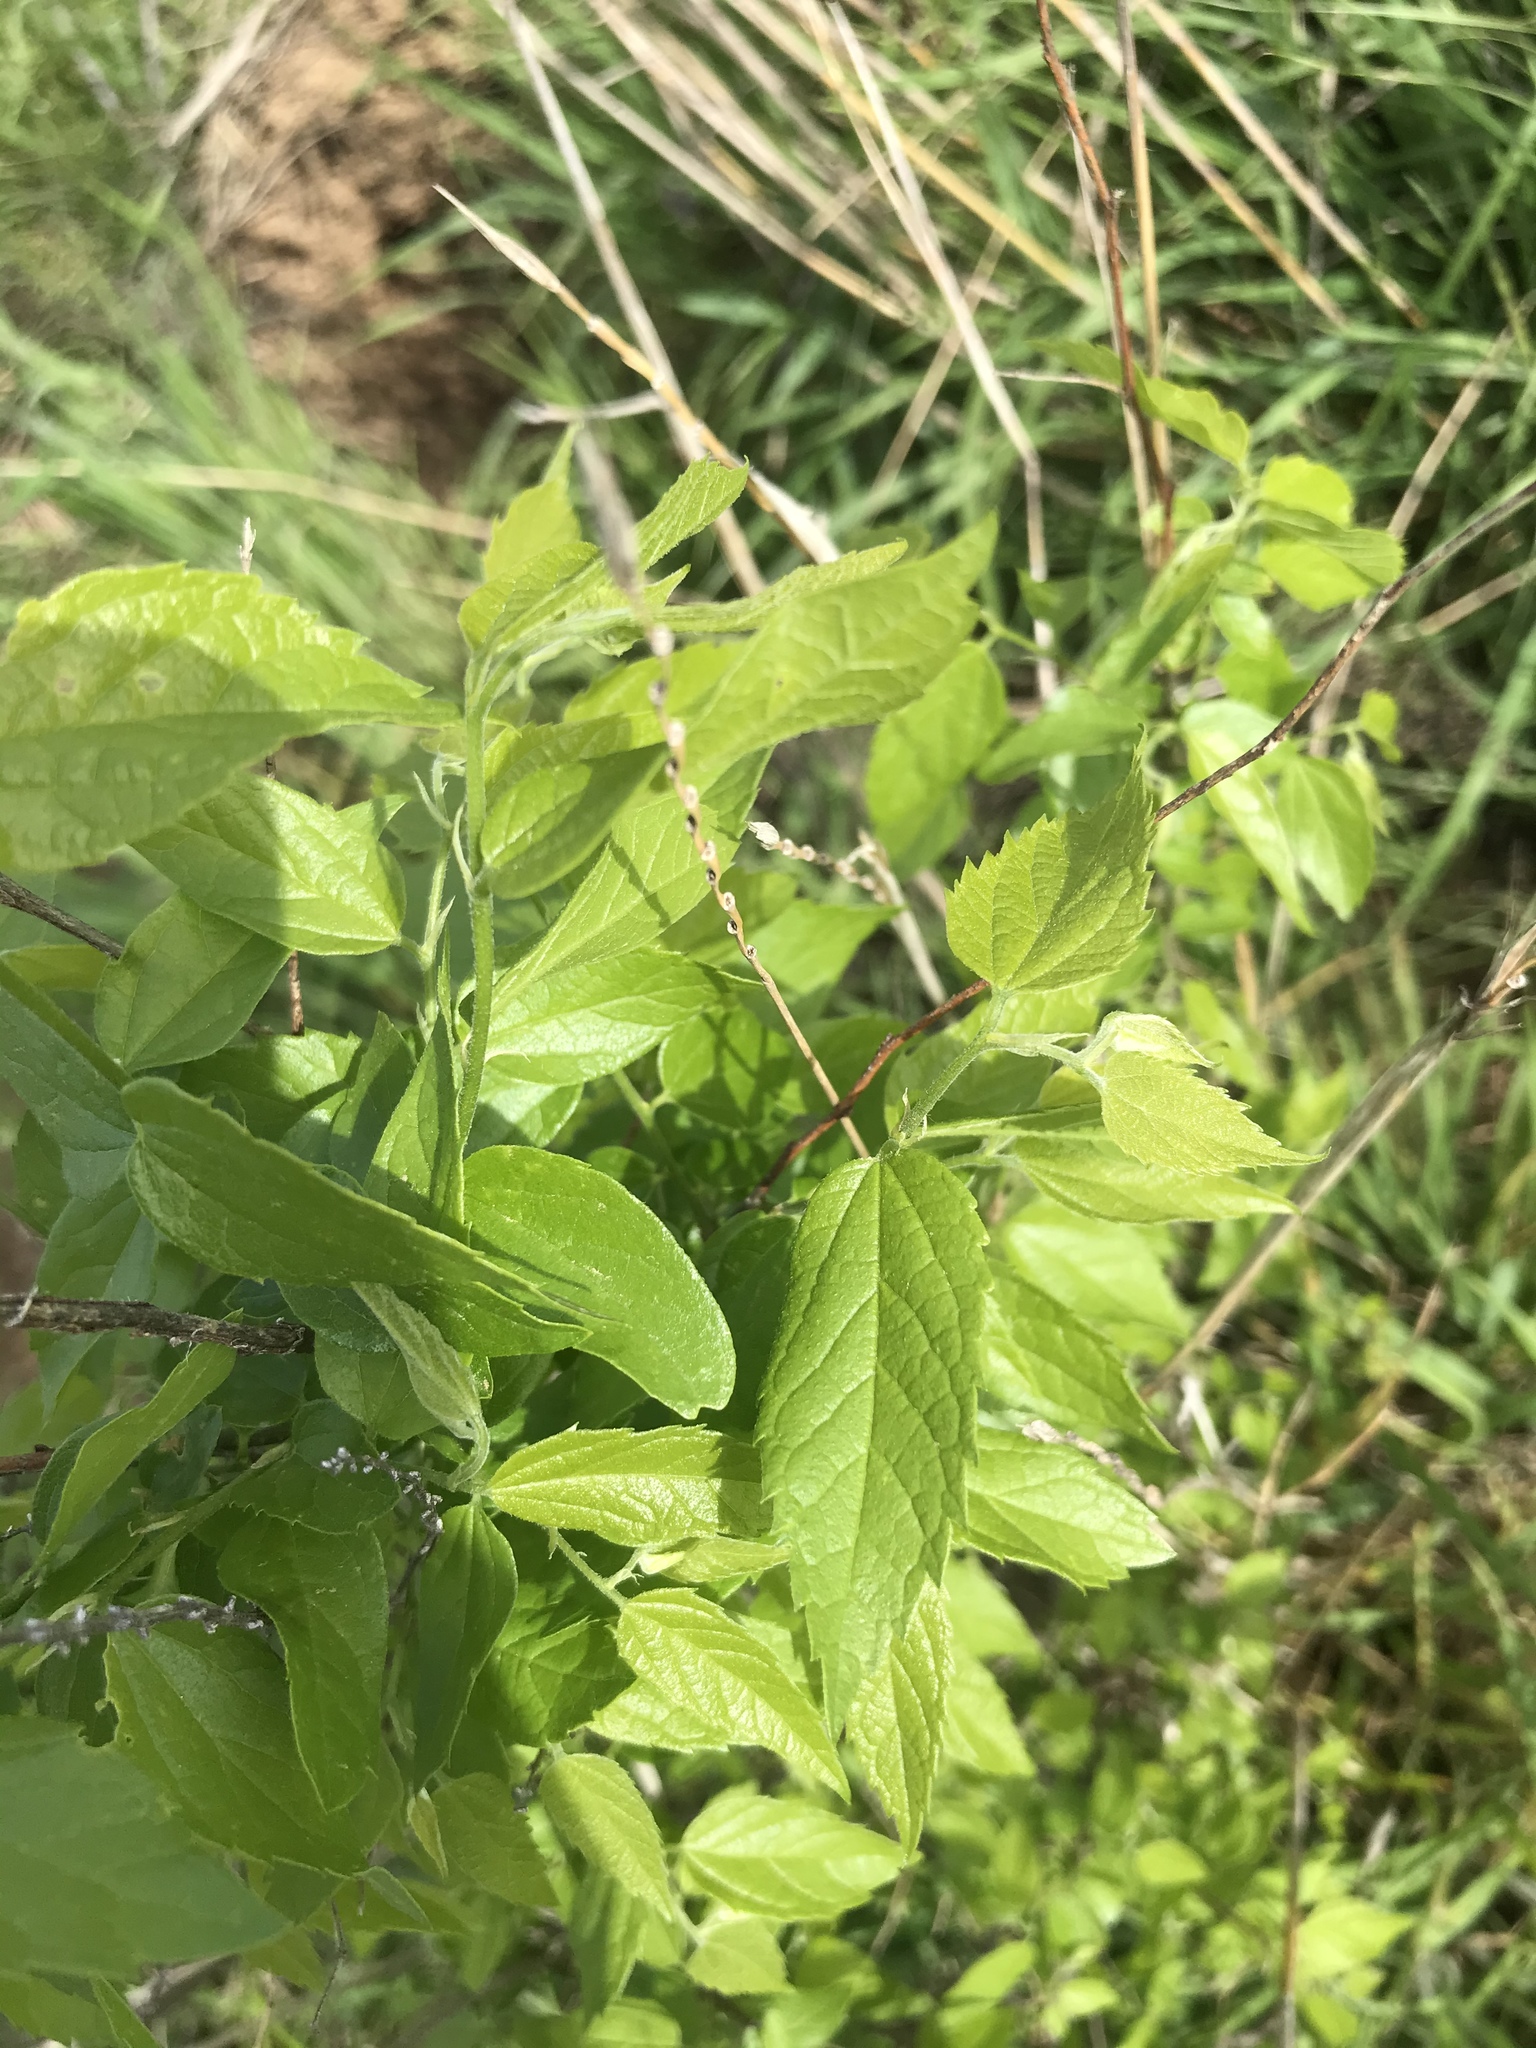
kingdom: Plantae
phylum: Tracheophyta
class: Magnoliopsida
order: Rosales
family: Cannabaceae
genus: Celtis
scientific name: Celtis laevigata
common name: Sugarberry
